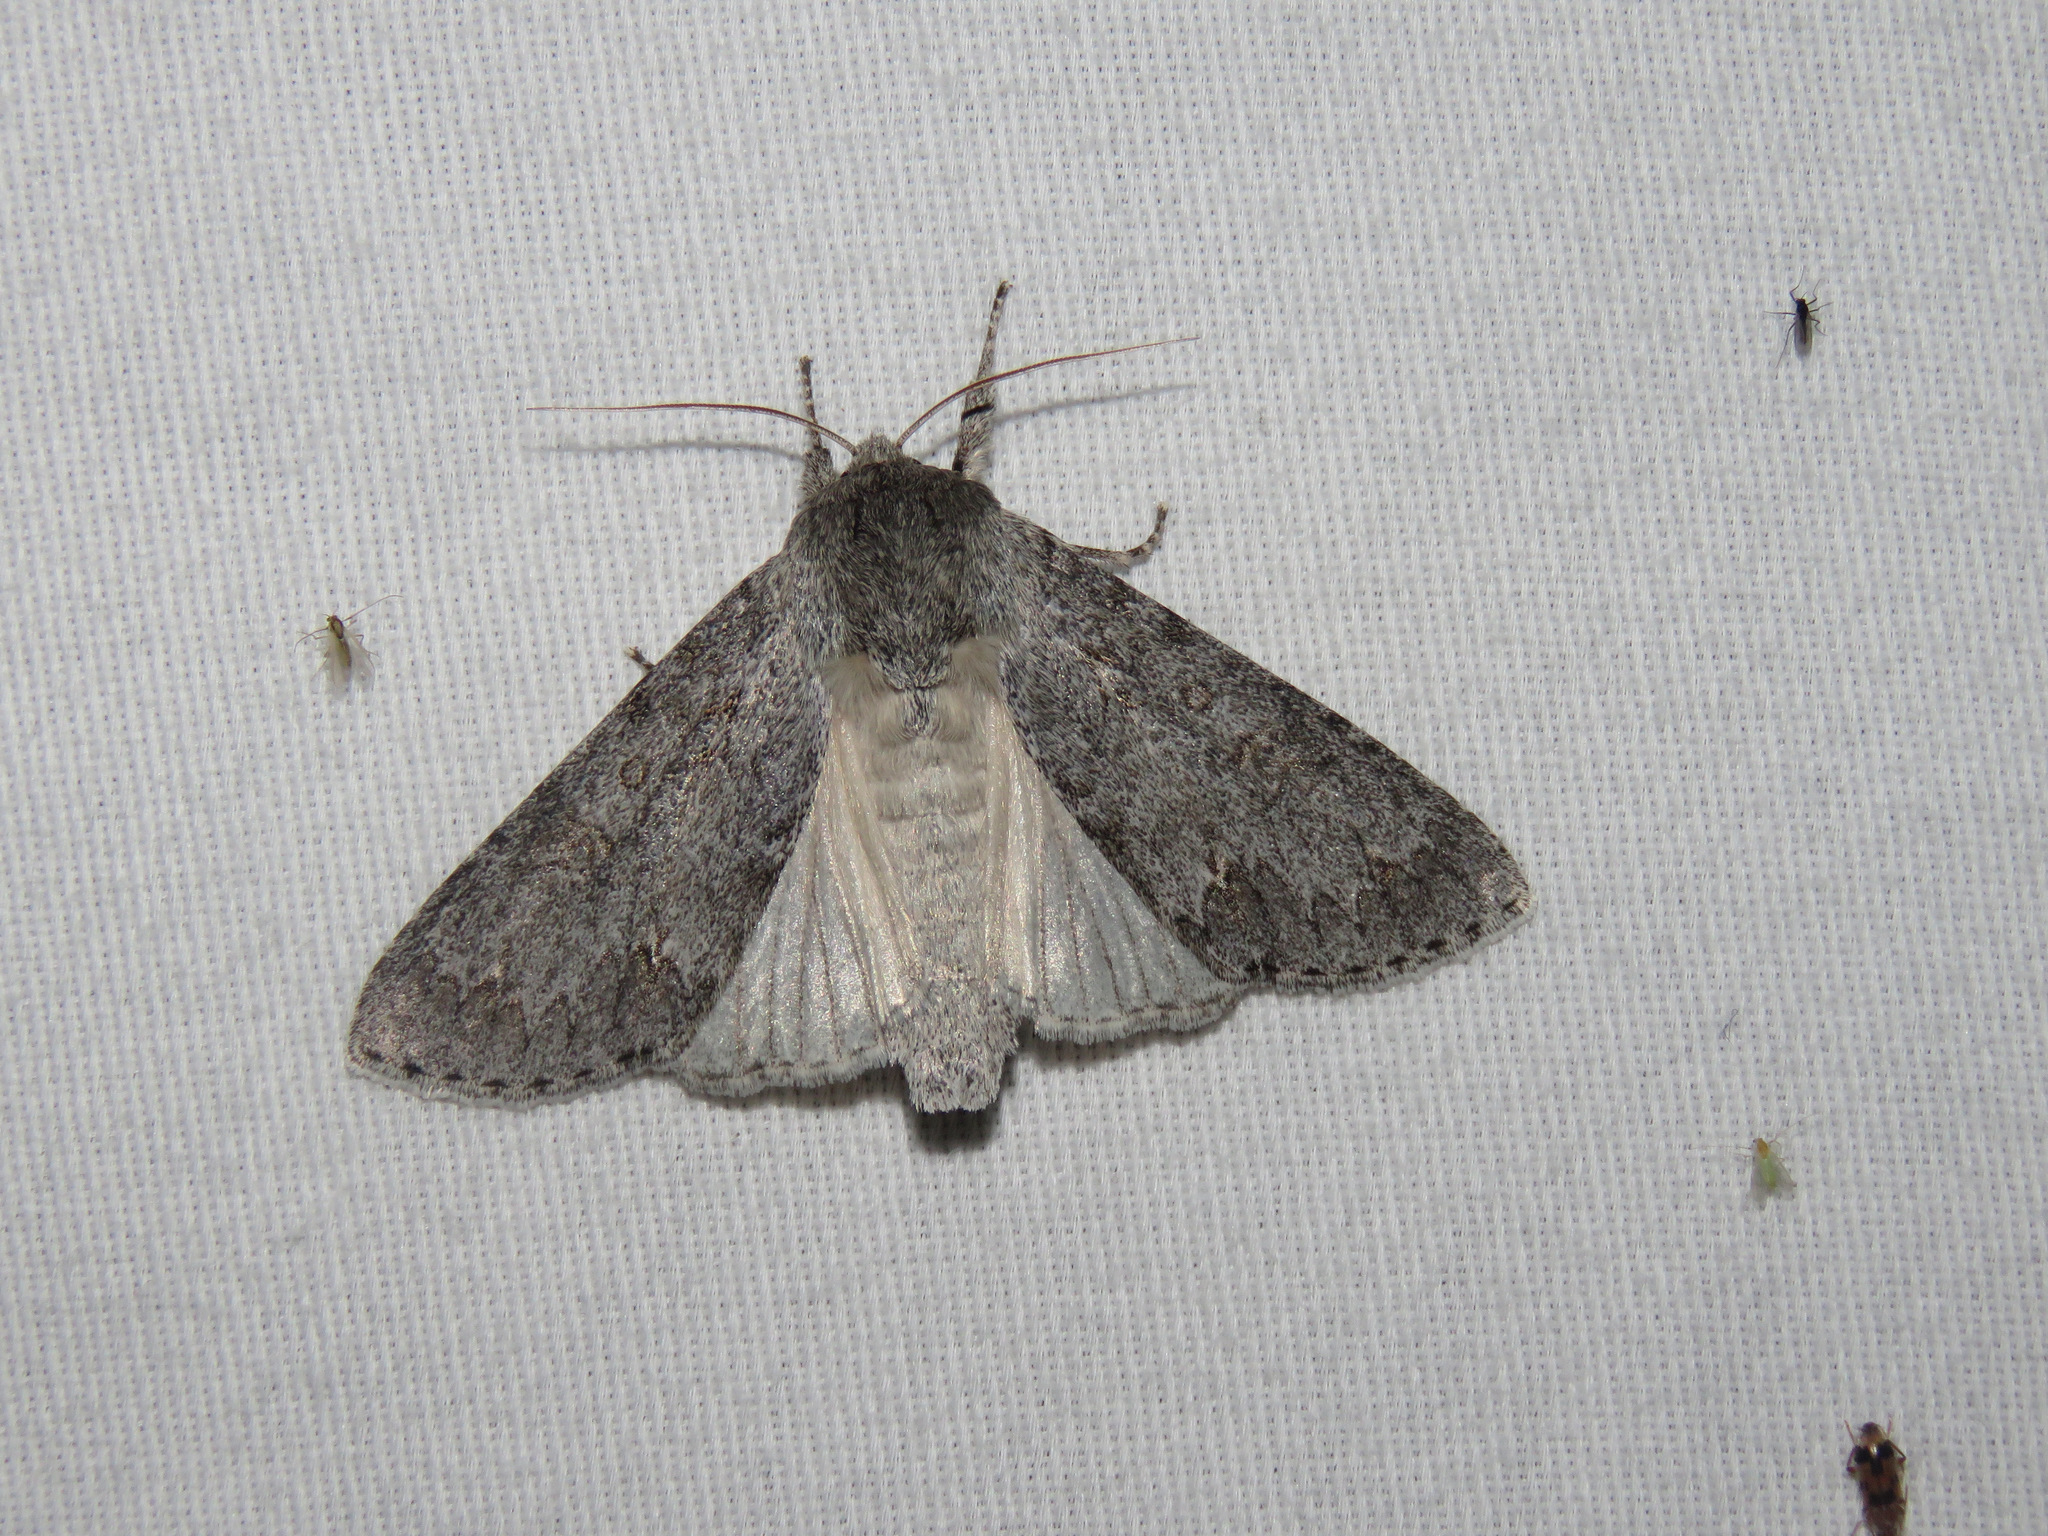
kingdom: Animalia
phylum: Arthropoda
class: Insecta
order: Lepidoptera
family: Noctuidae
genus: Acronicta
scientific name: Acronicta insita
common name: Large gray dagger
